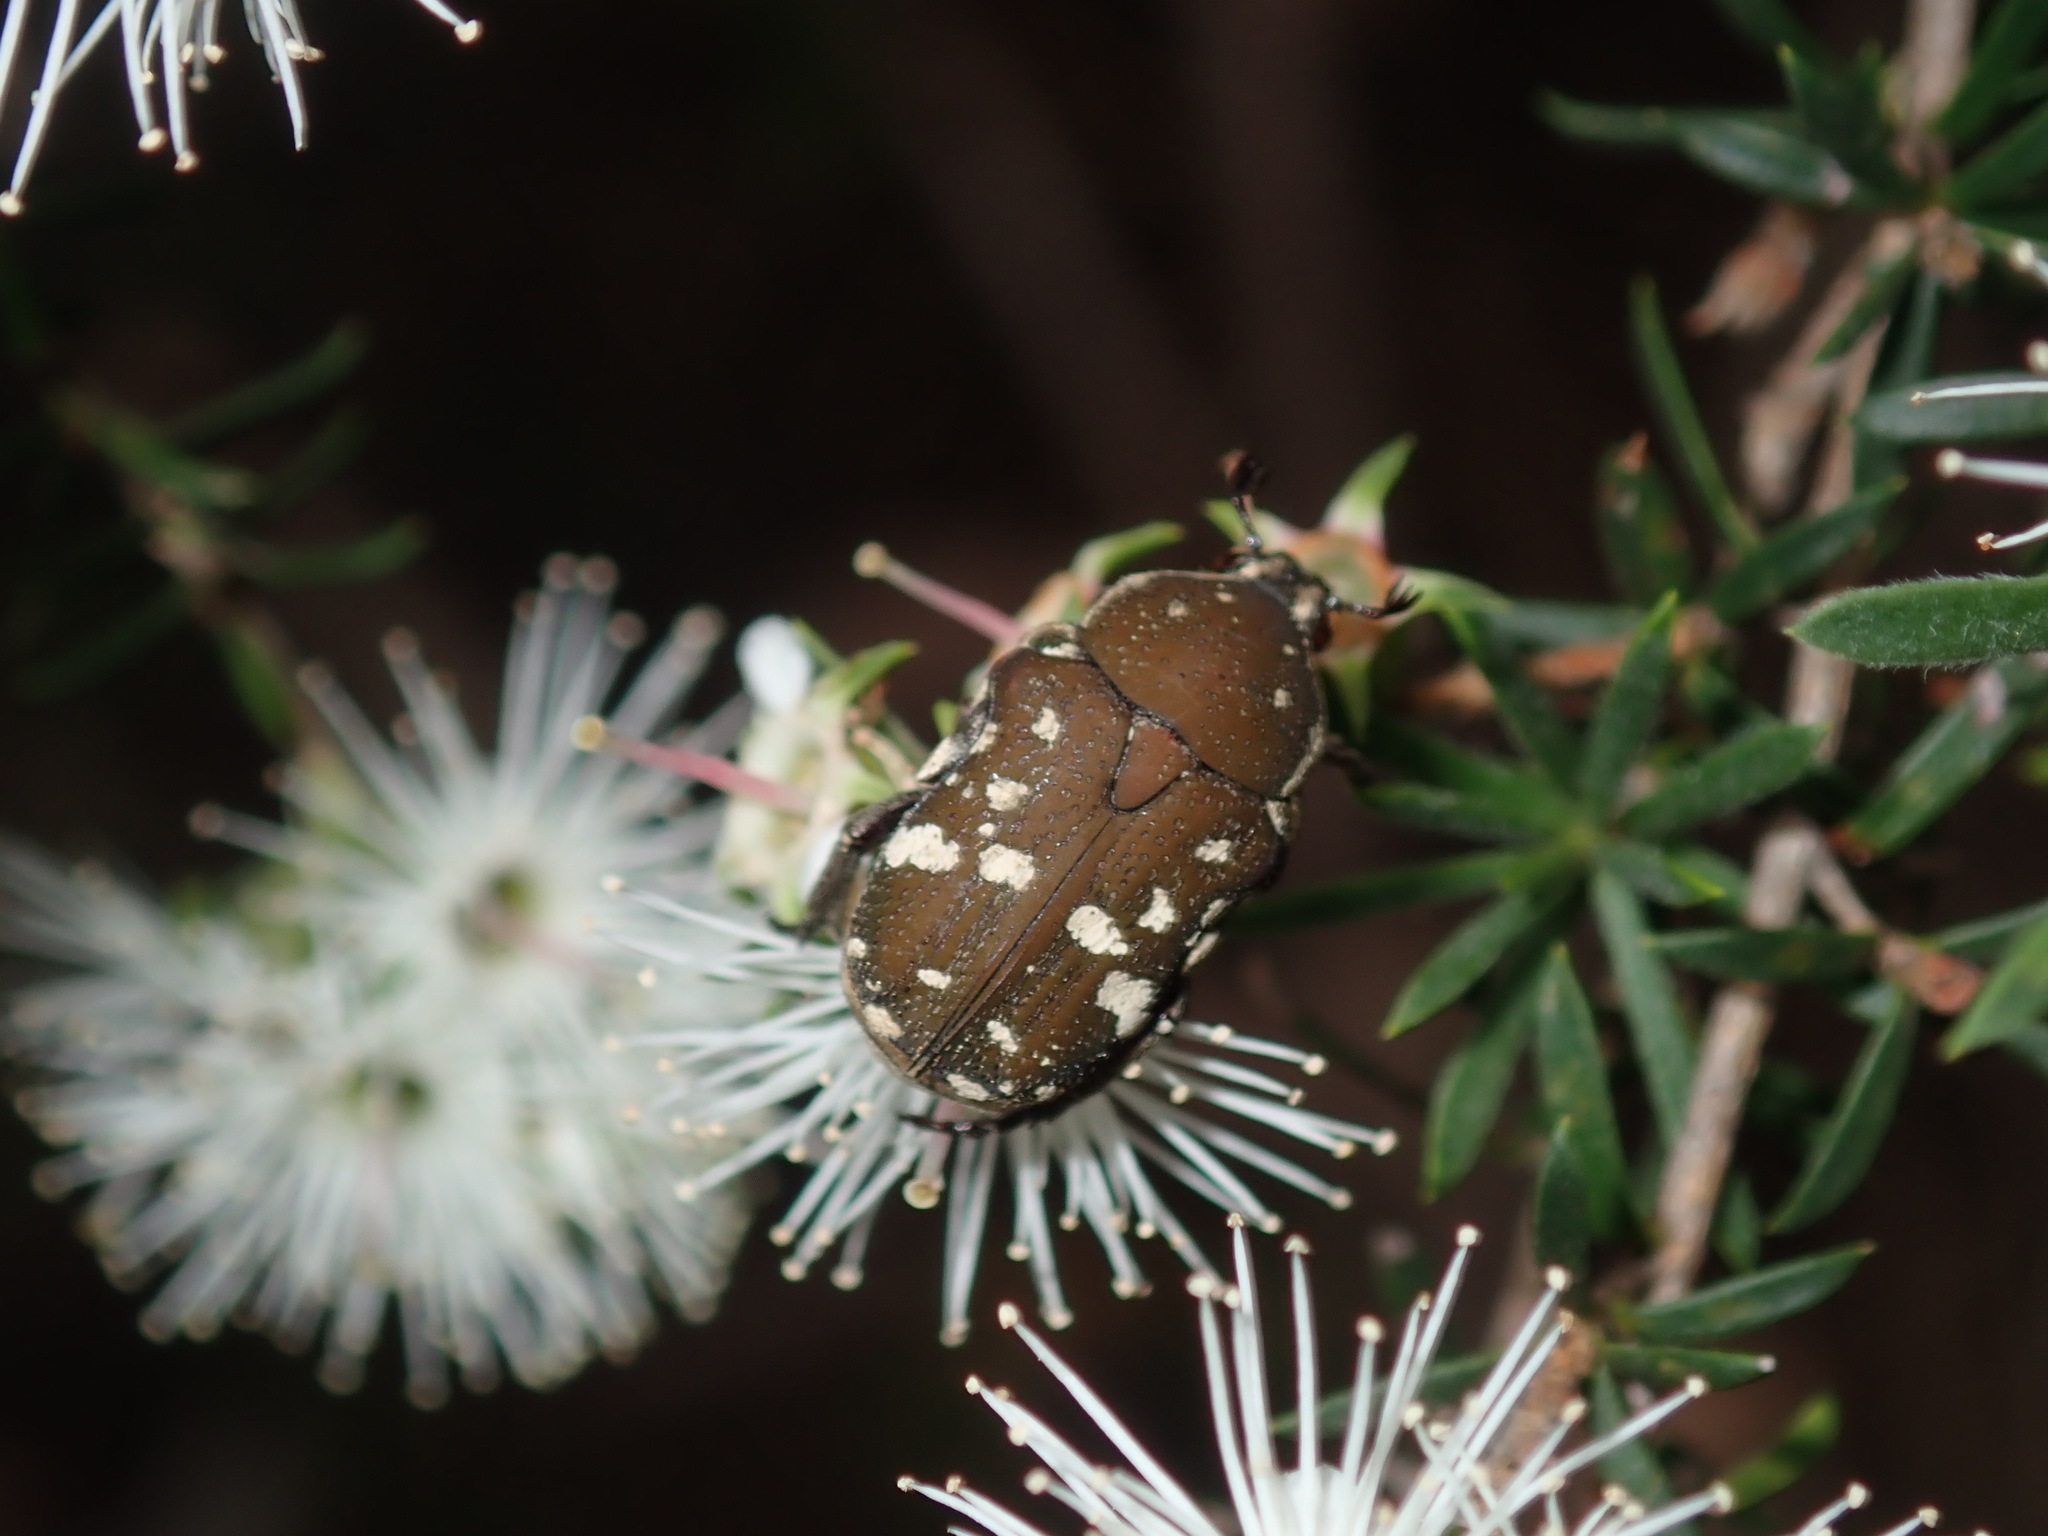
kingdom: Animalia
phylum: Arthropoda
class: Insecta
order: Coleoptera
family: Scarabaeidae
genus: Glycyphana
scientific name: Glycyphana stolata
